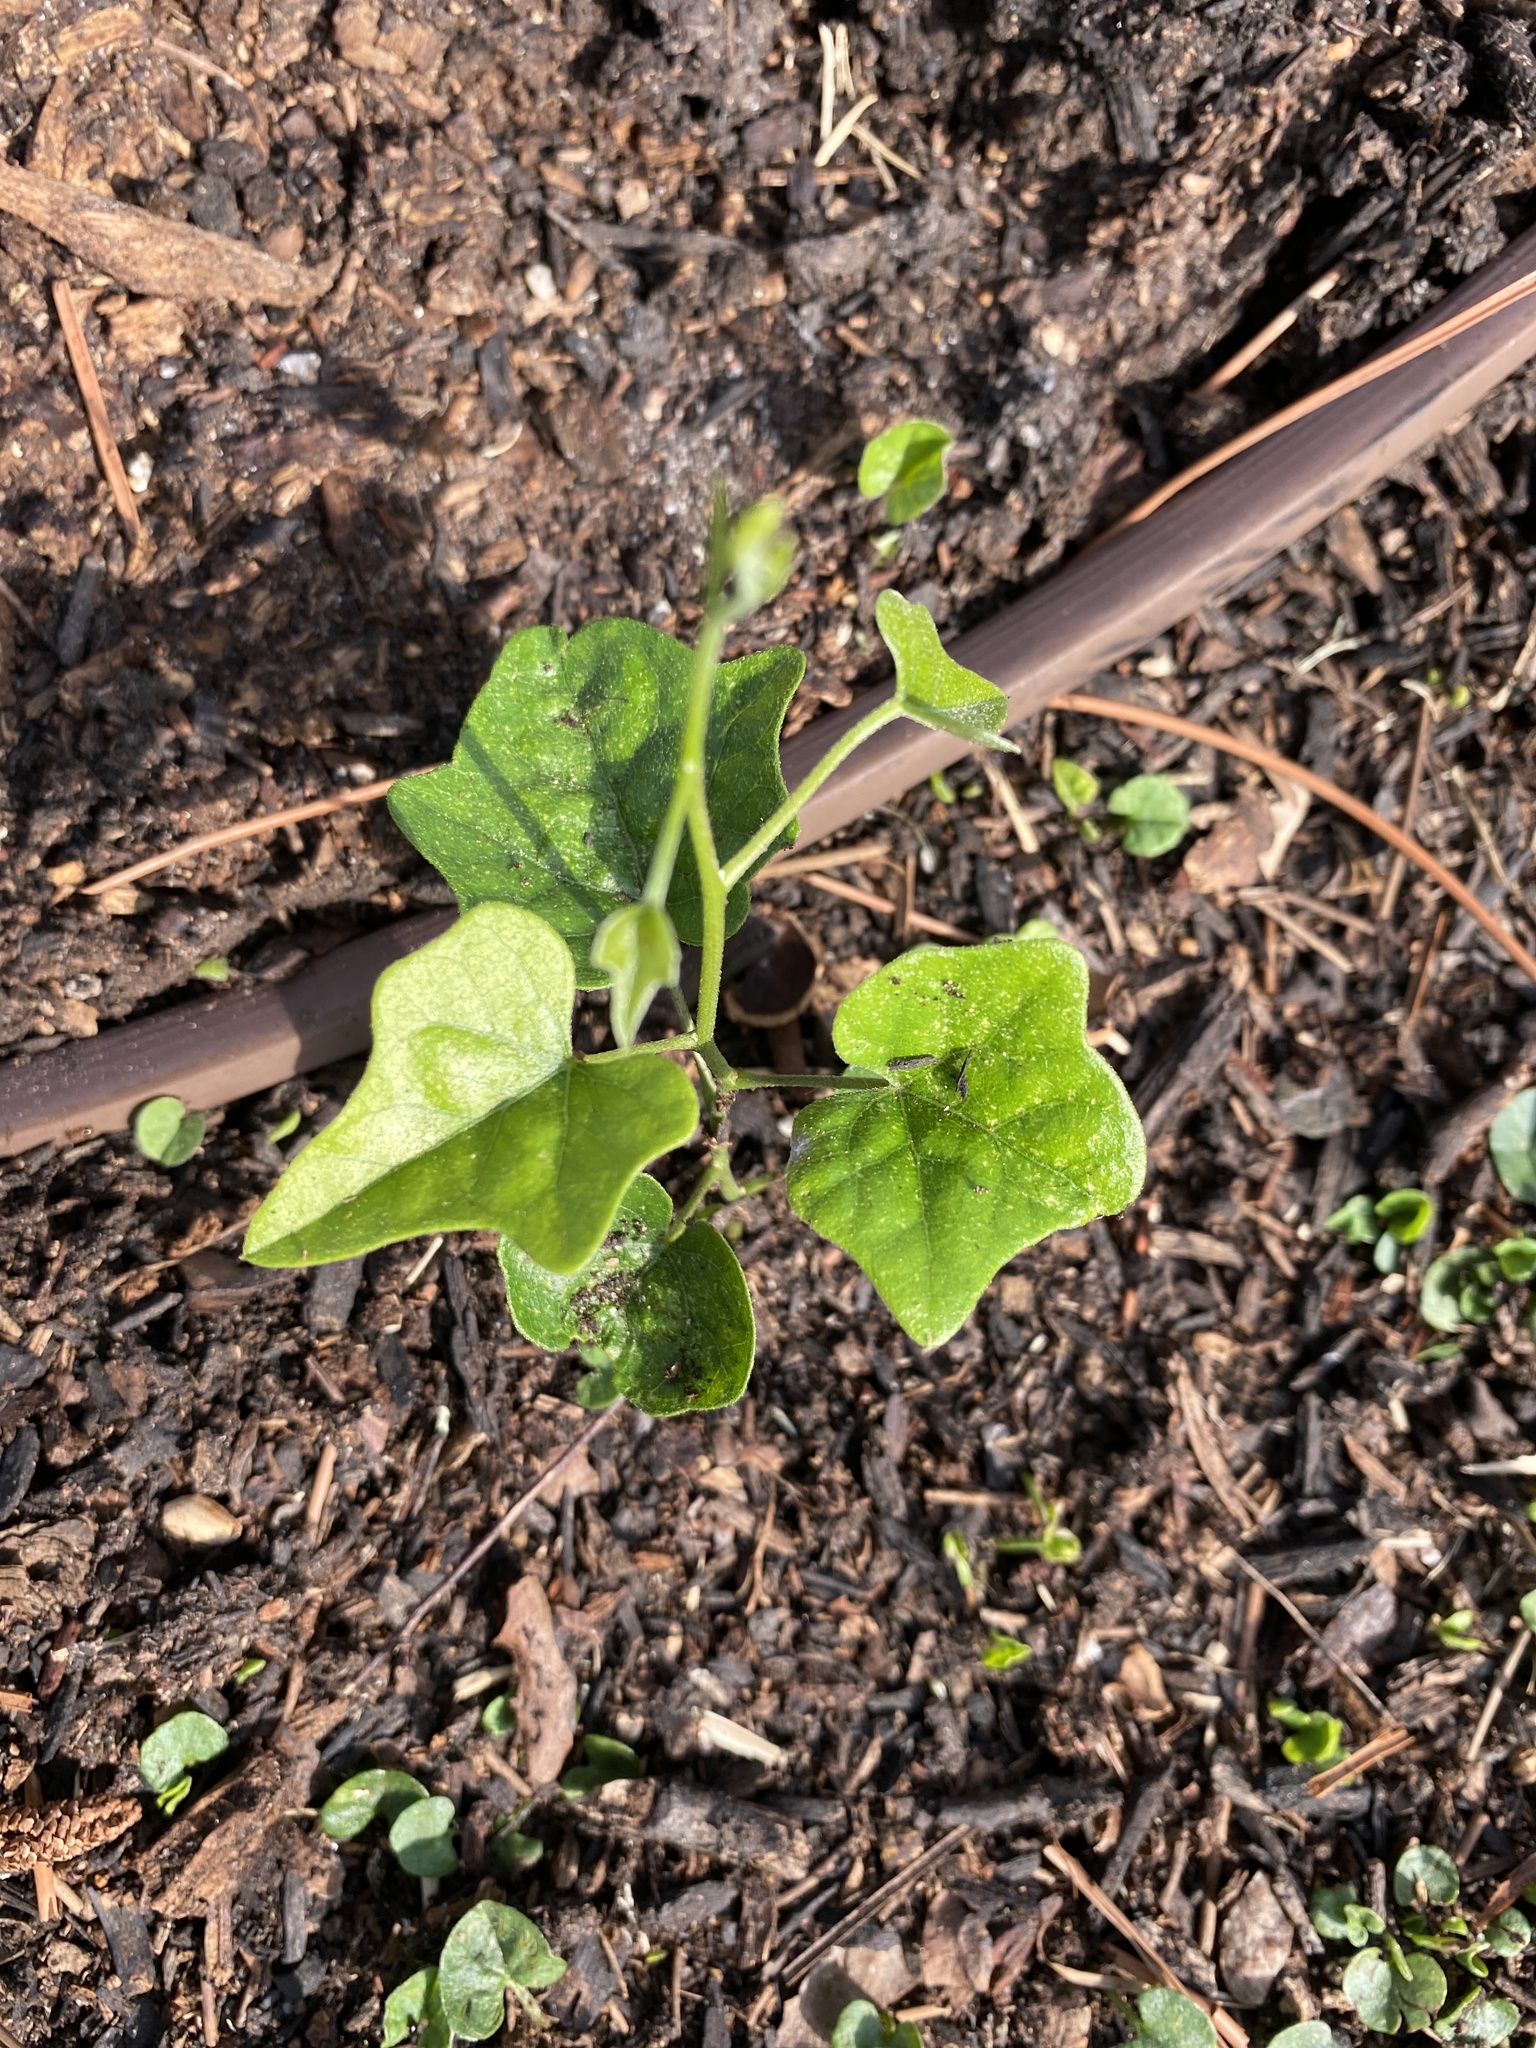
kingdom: Plantae
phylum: Tracheophyta
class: Magnoliopsida
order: Ranunculales
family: Menispermaceae
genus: Cocculus
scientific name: Cocculus carolinus
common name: Carolina moonseed
